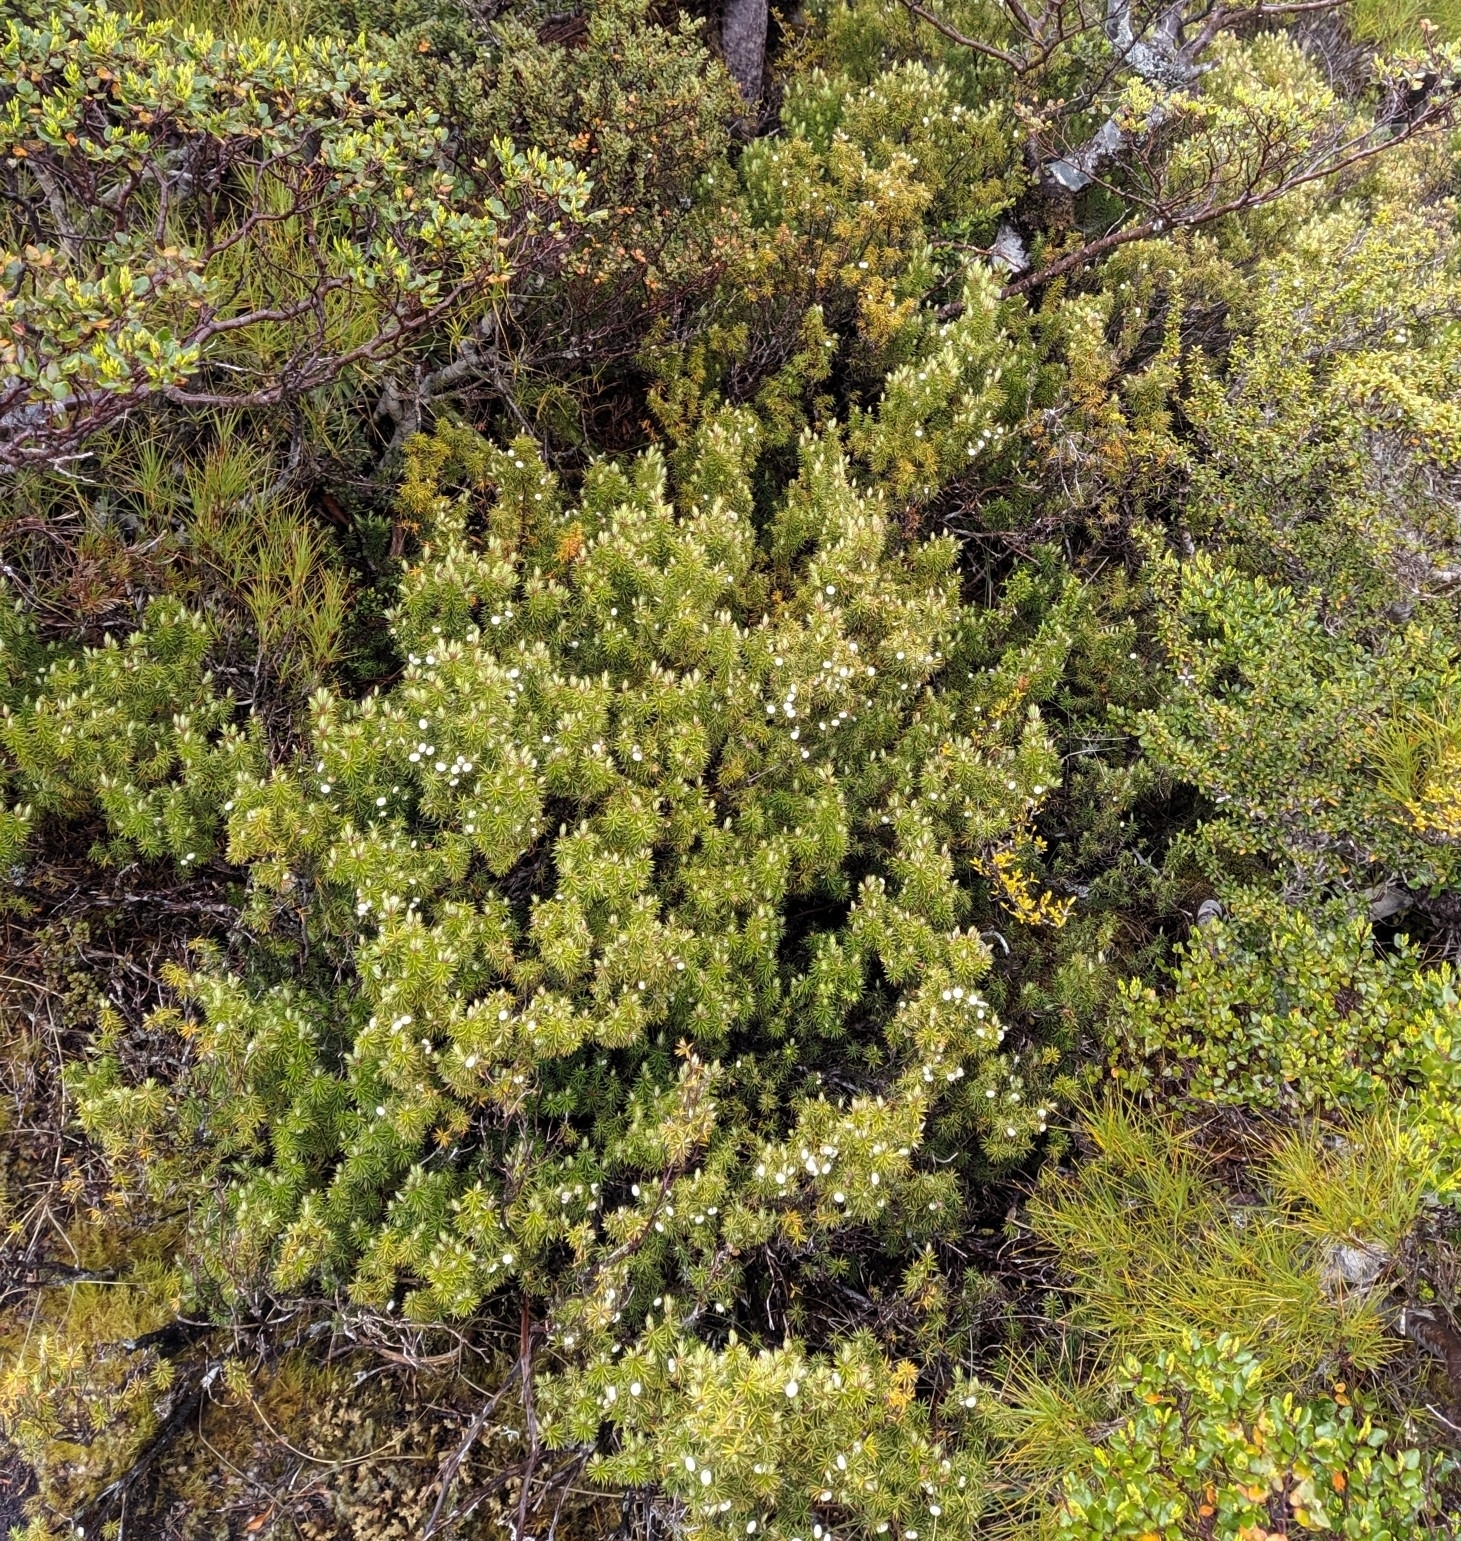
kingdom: Plantae
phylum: Tracheophyta
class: Magnoliopsida
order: Ericales
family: Ericaceae
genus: Leptecophylla
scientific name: Leptecophylla juniperina
